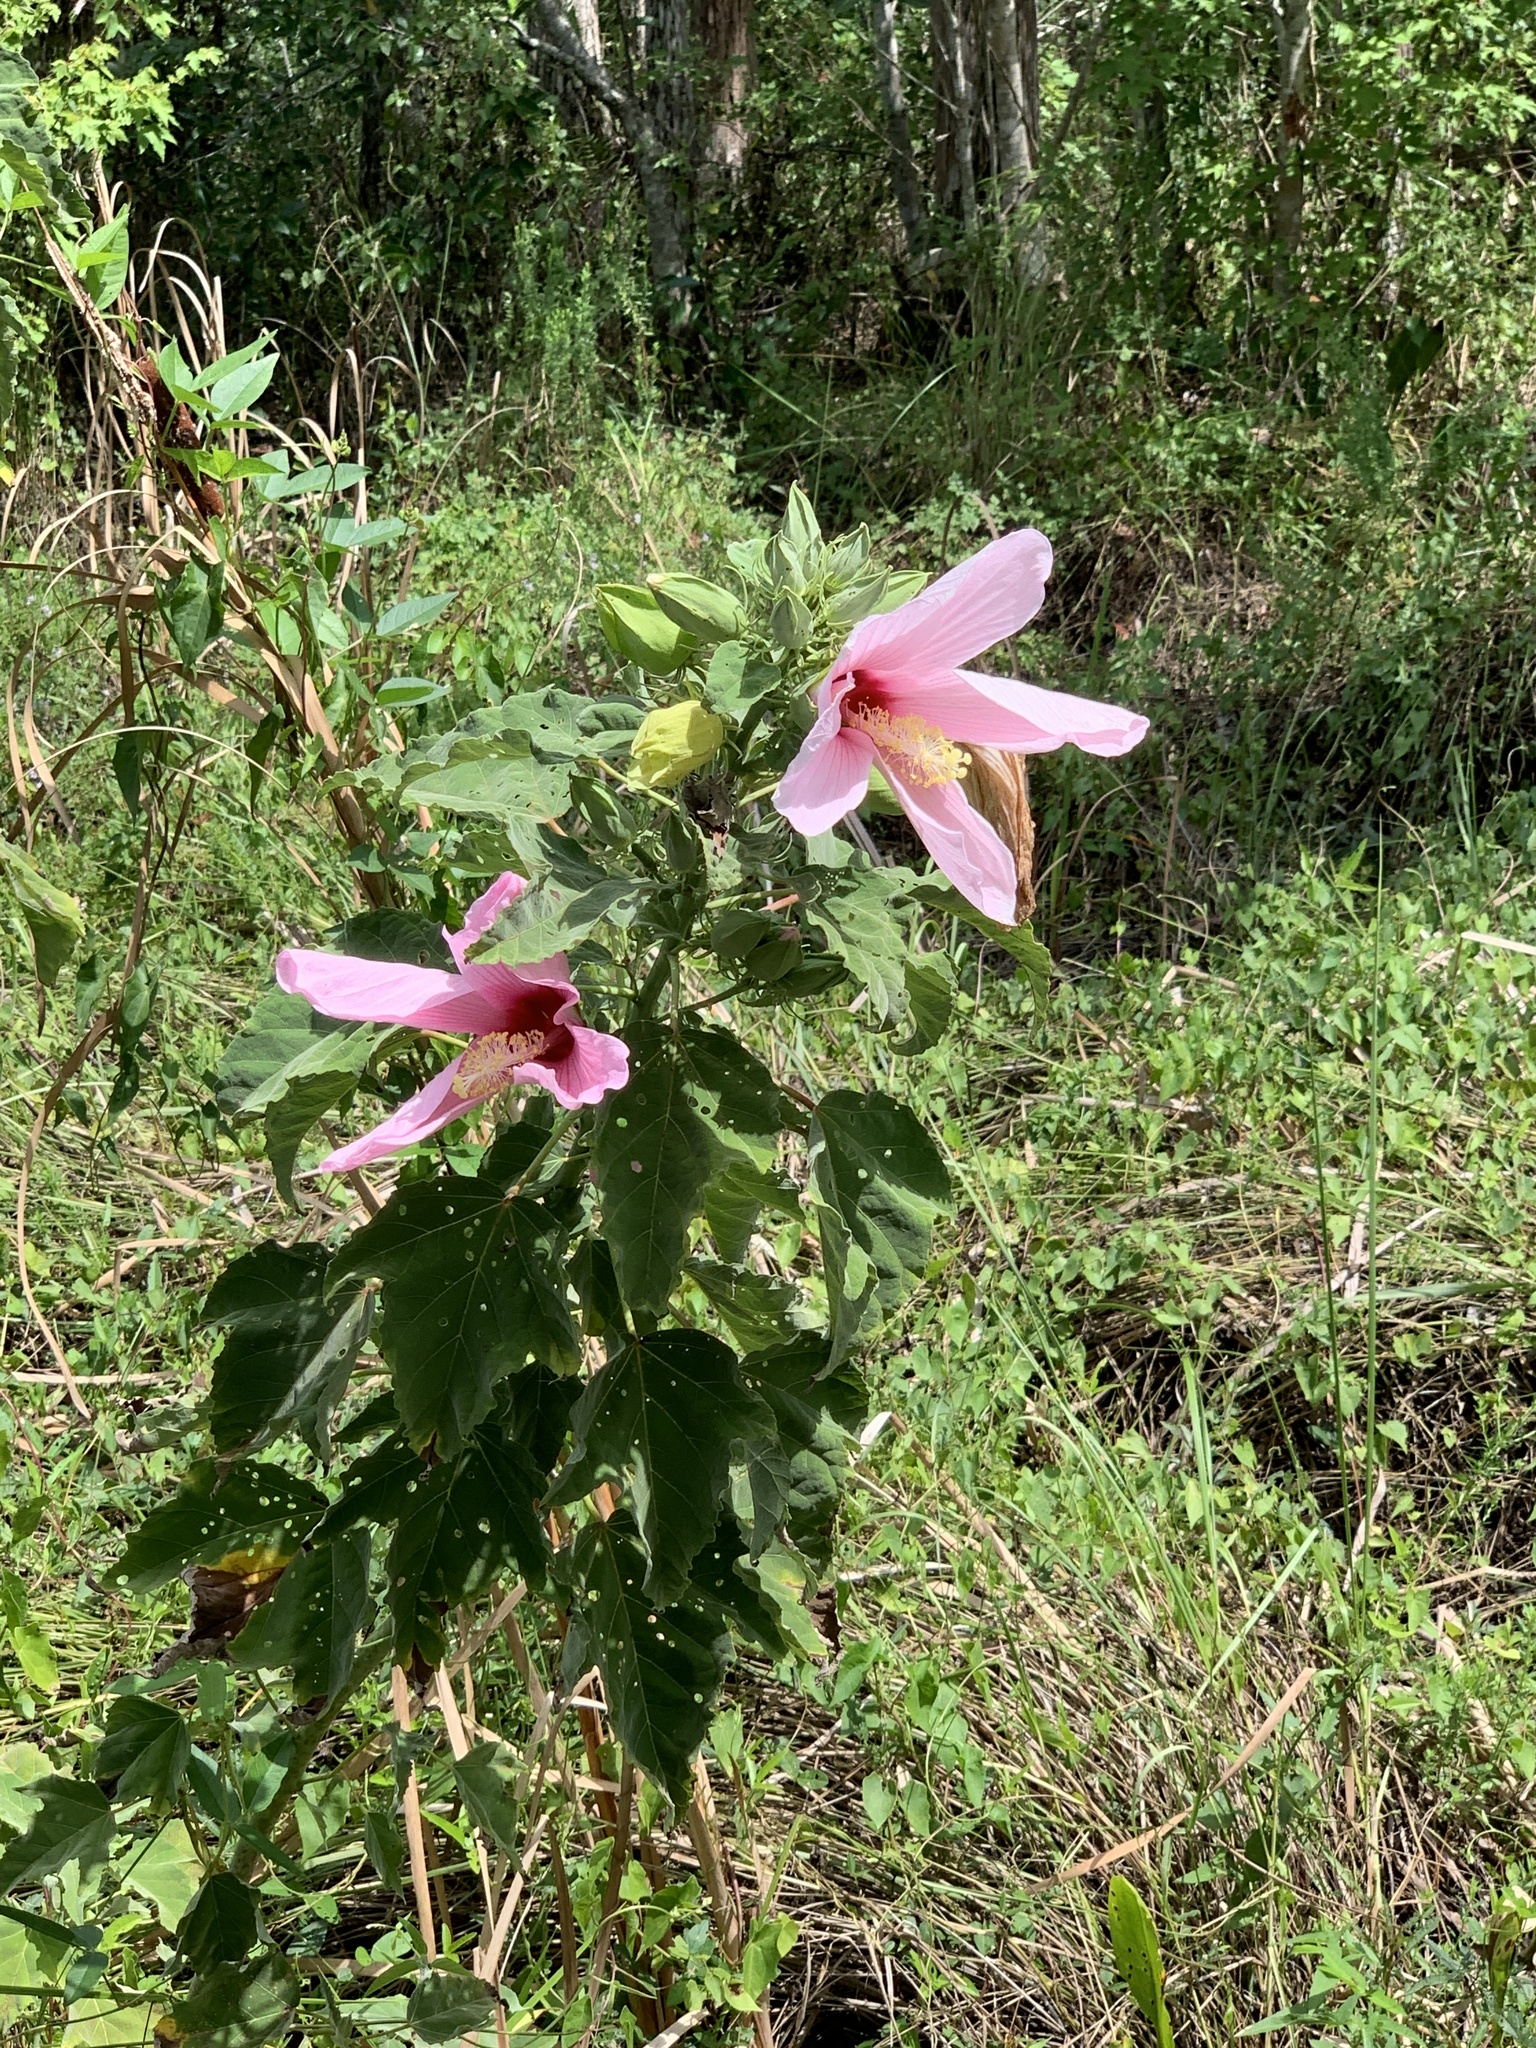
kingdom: Plantae
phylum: Tracheophyta
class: Magnoliopsida
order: Malvales
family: Malvaceae
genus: Hibiscus
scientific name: Hibiscus grandiflorus
